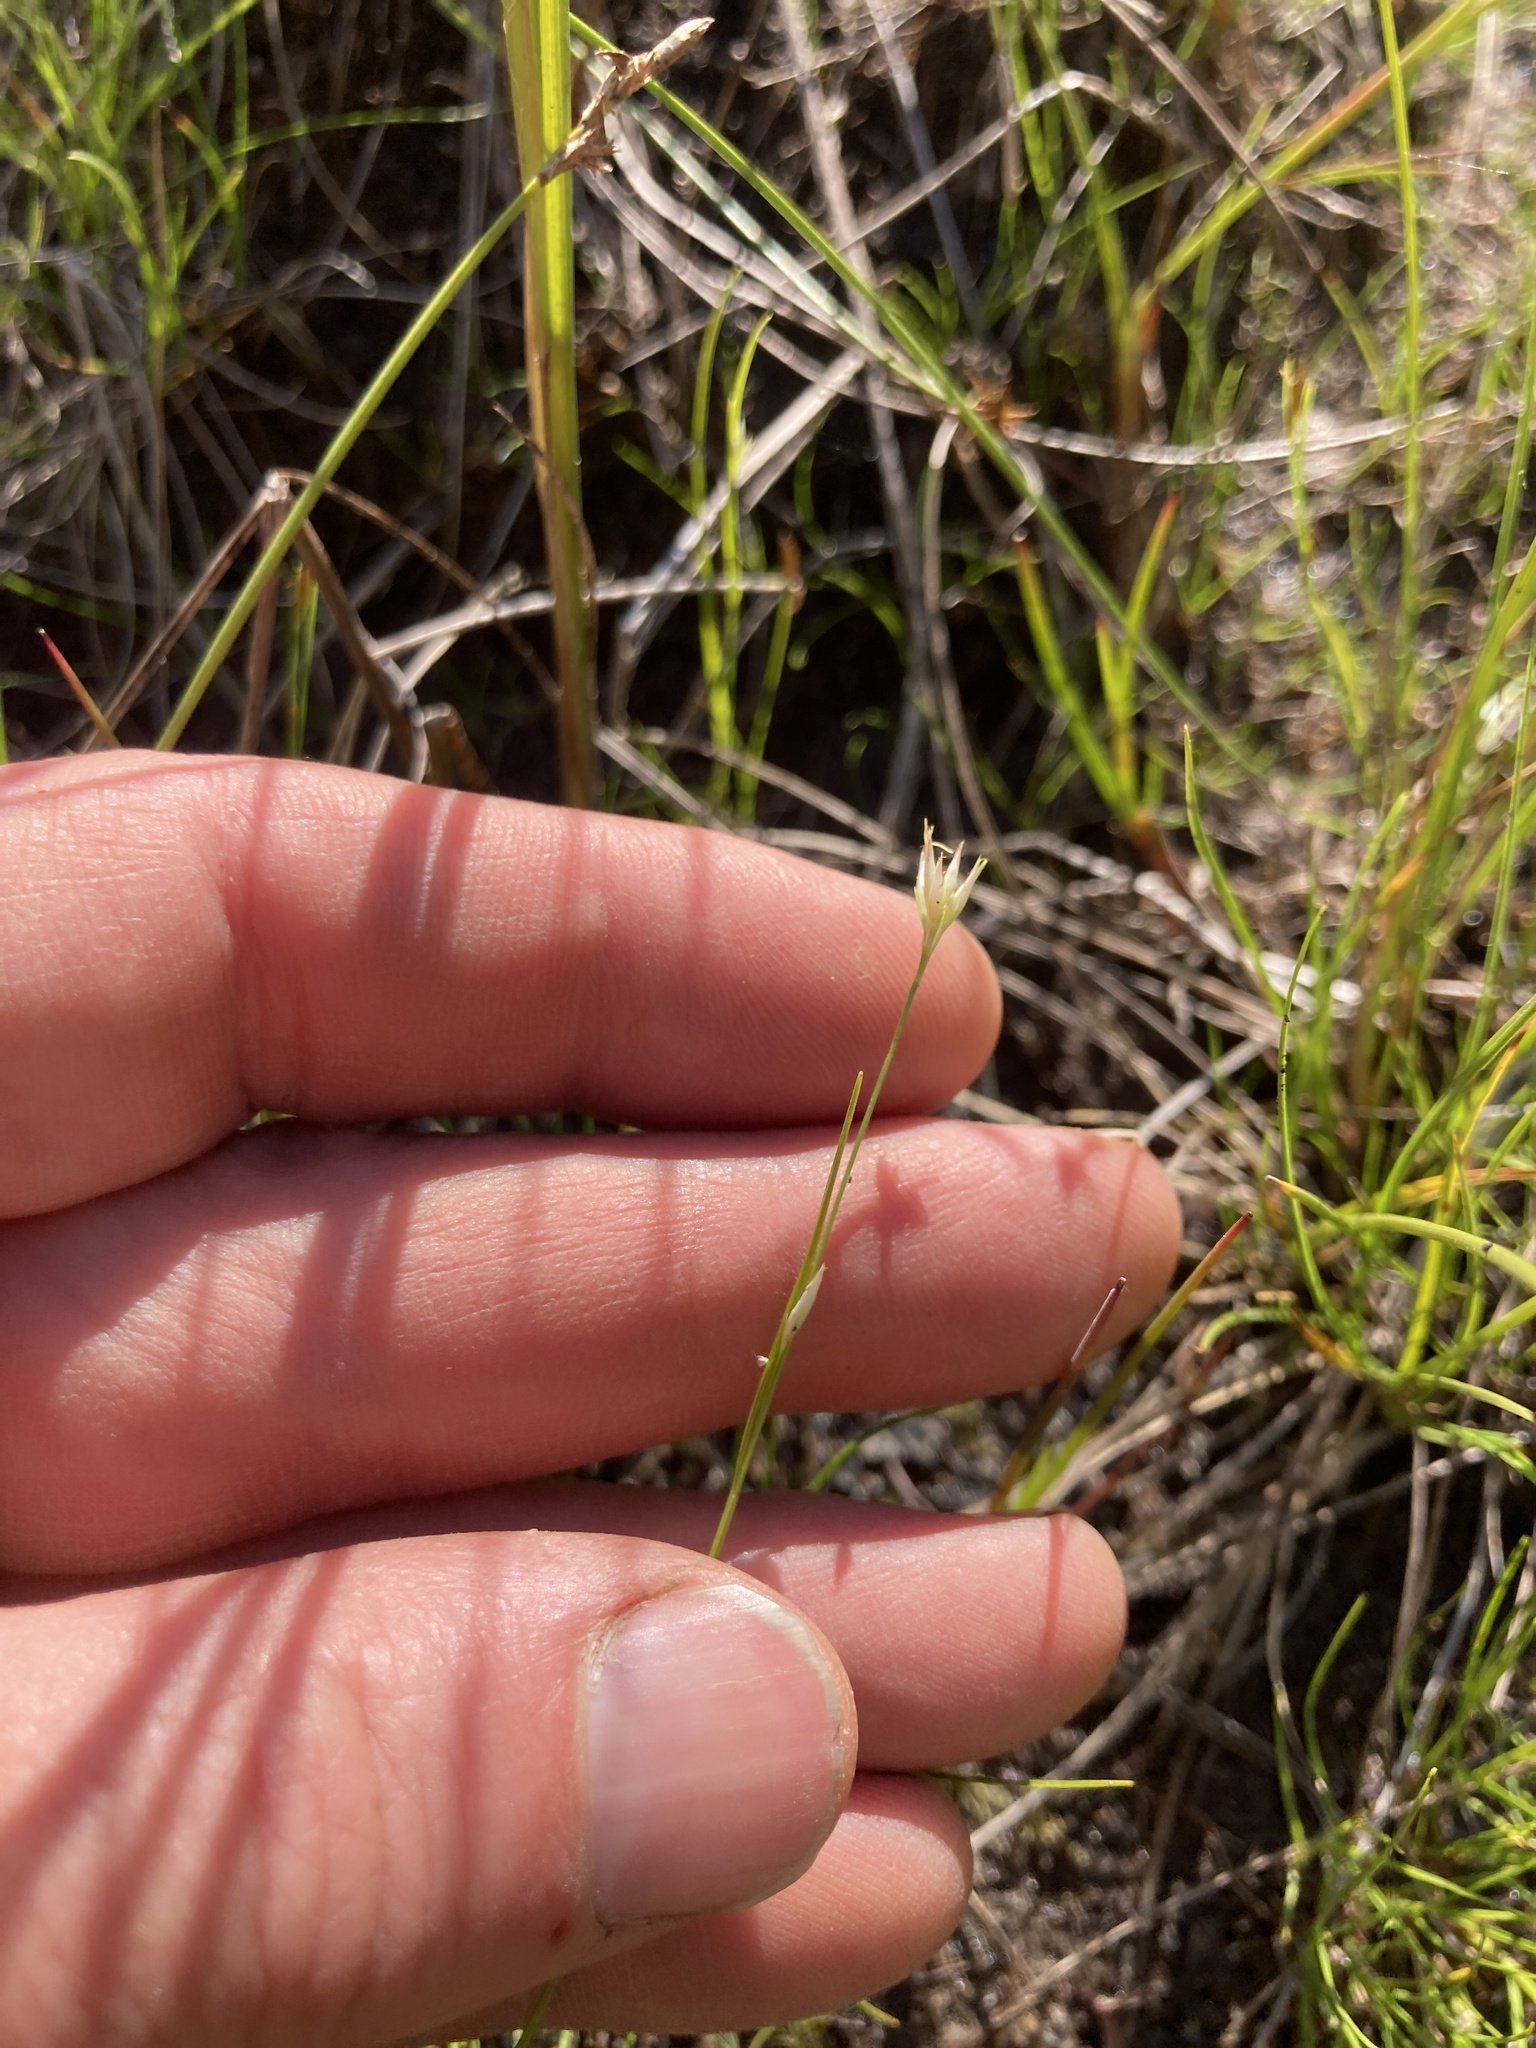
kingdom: Plantae
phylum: Tracheophyta
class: Liliopsida
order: Poales
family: Cyperaceae
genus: Rhynchospora
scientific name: Rhynchospora alba
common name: White beak-sedge
